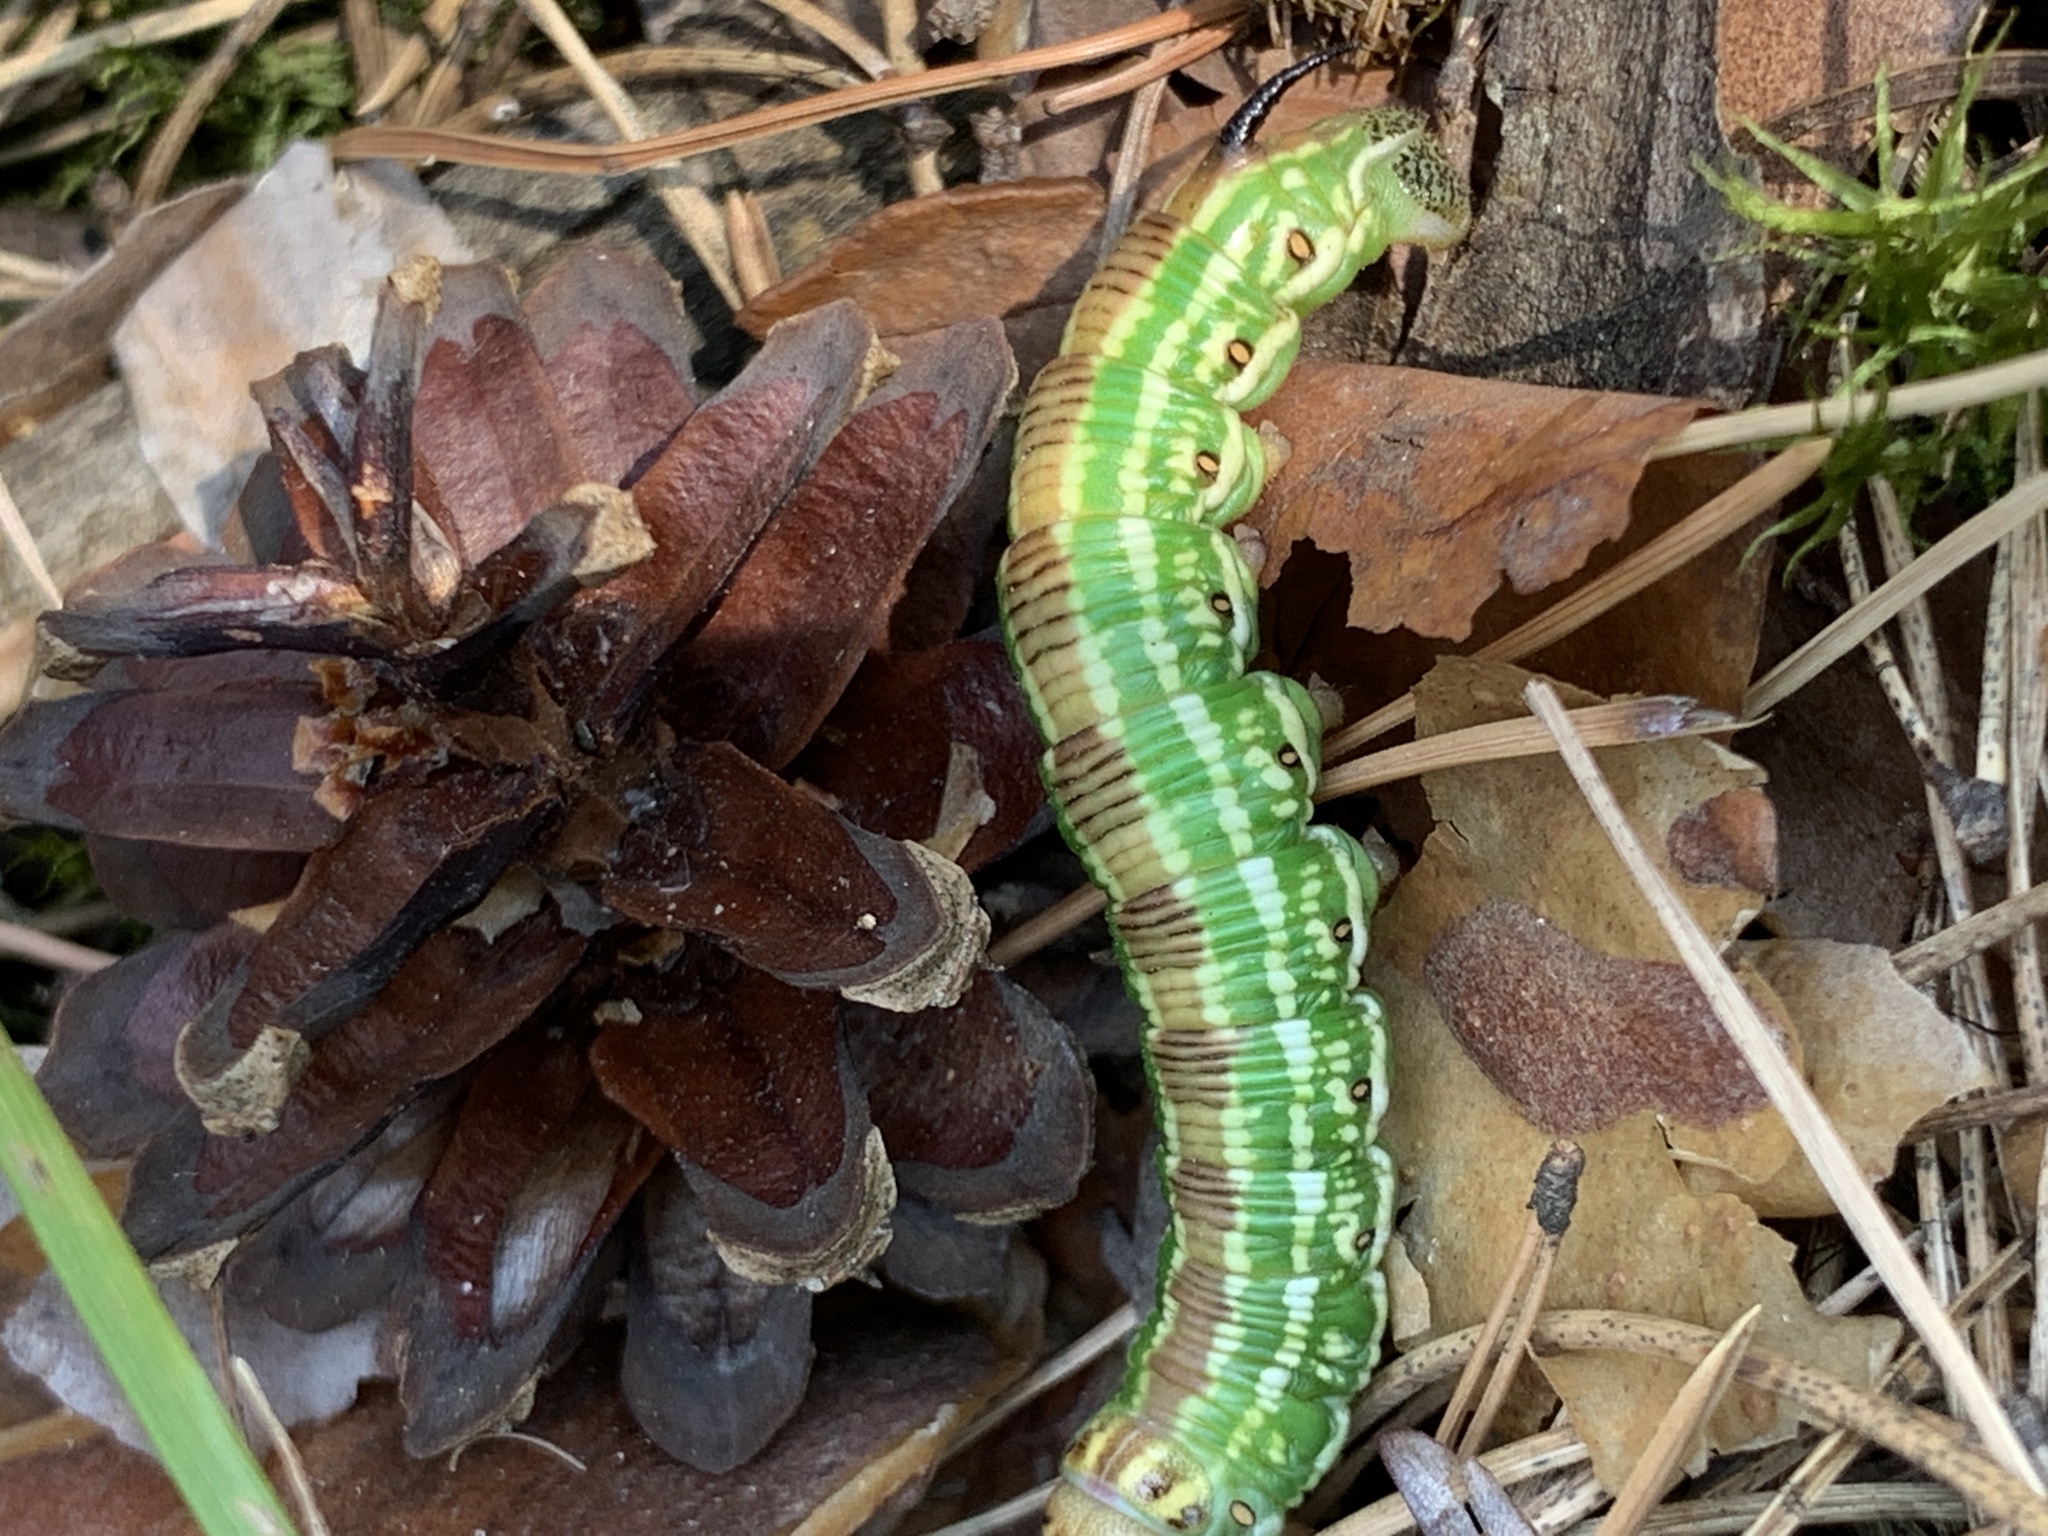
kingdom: Animalia
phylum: Arthropoda
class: Insecta
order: Lepidoptera
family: Sphingidae
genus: Sphinx
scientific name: Sphinx pinastri
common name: Pine hawk-moth
